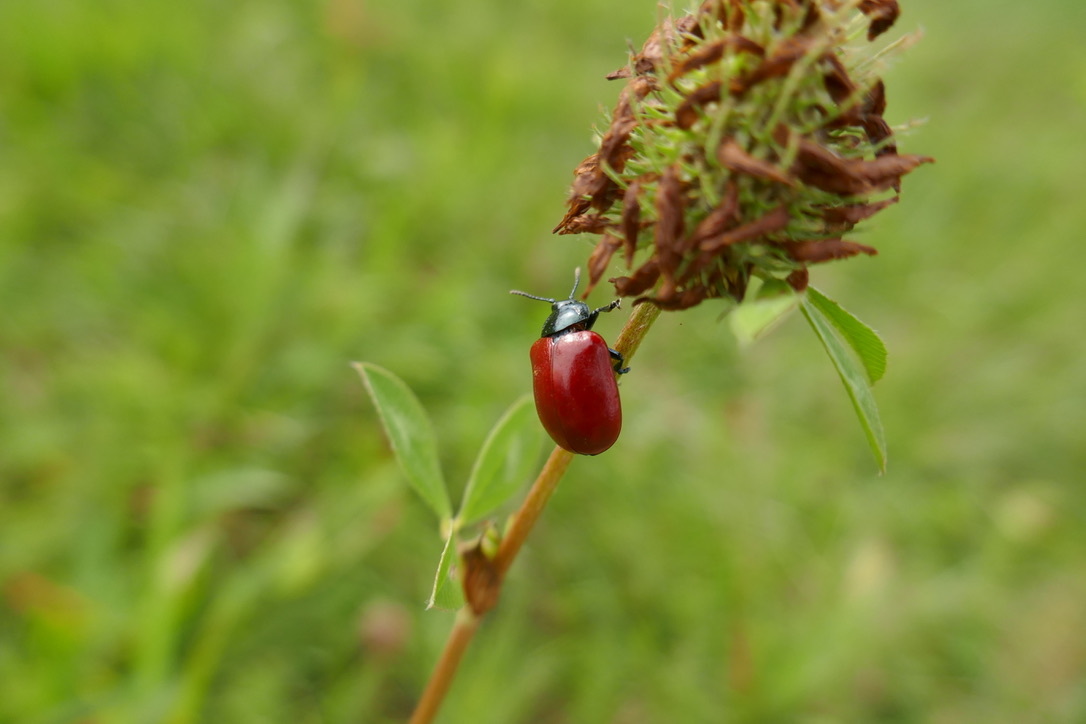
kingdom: Animalia
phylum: Arthropoda
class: Insecta
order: Coleoptera
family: Chrysomelidae
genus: Chrysomela
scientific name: Chrysomela populi
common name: Red poplar leaf beetle
